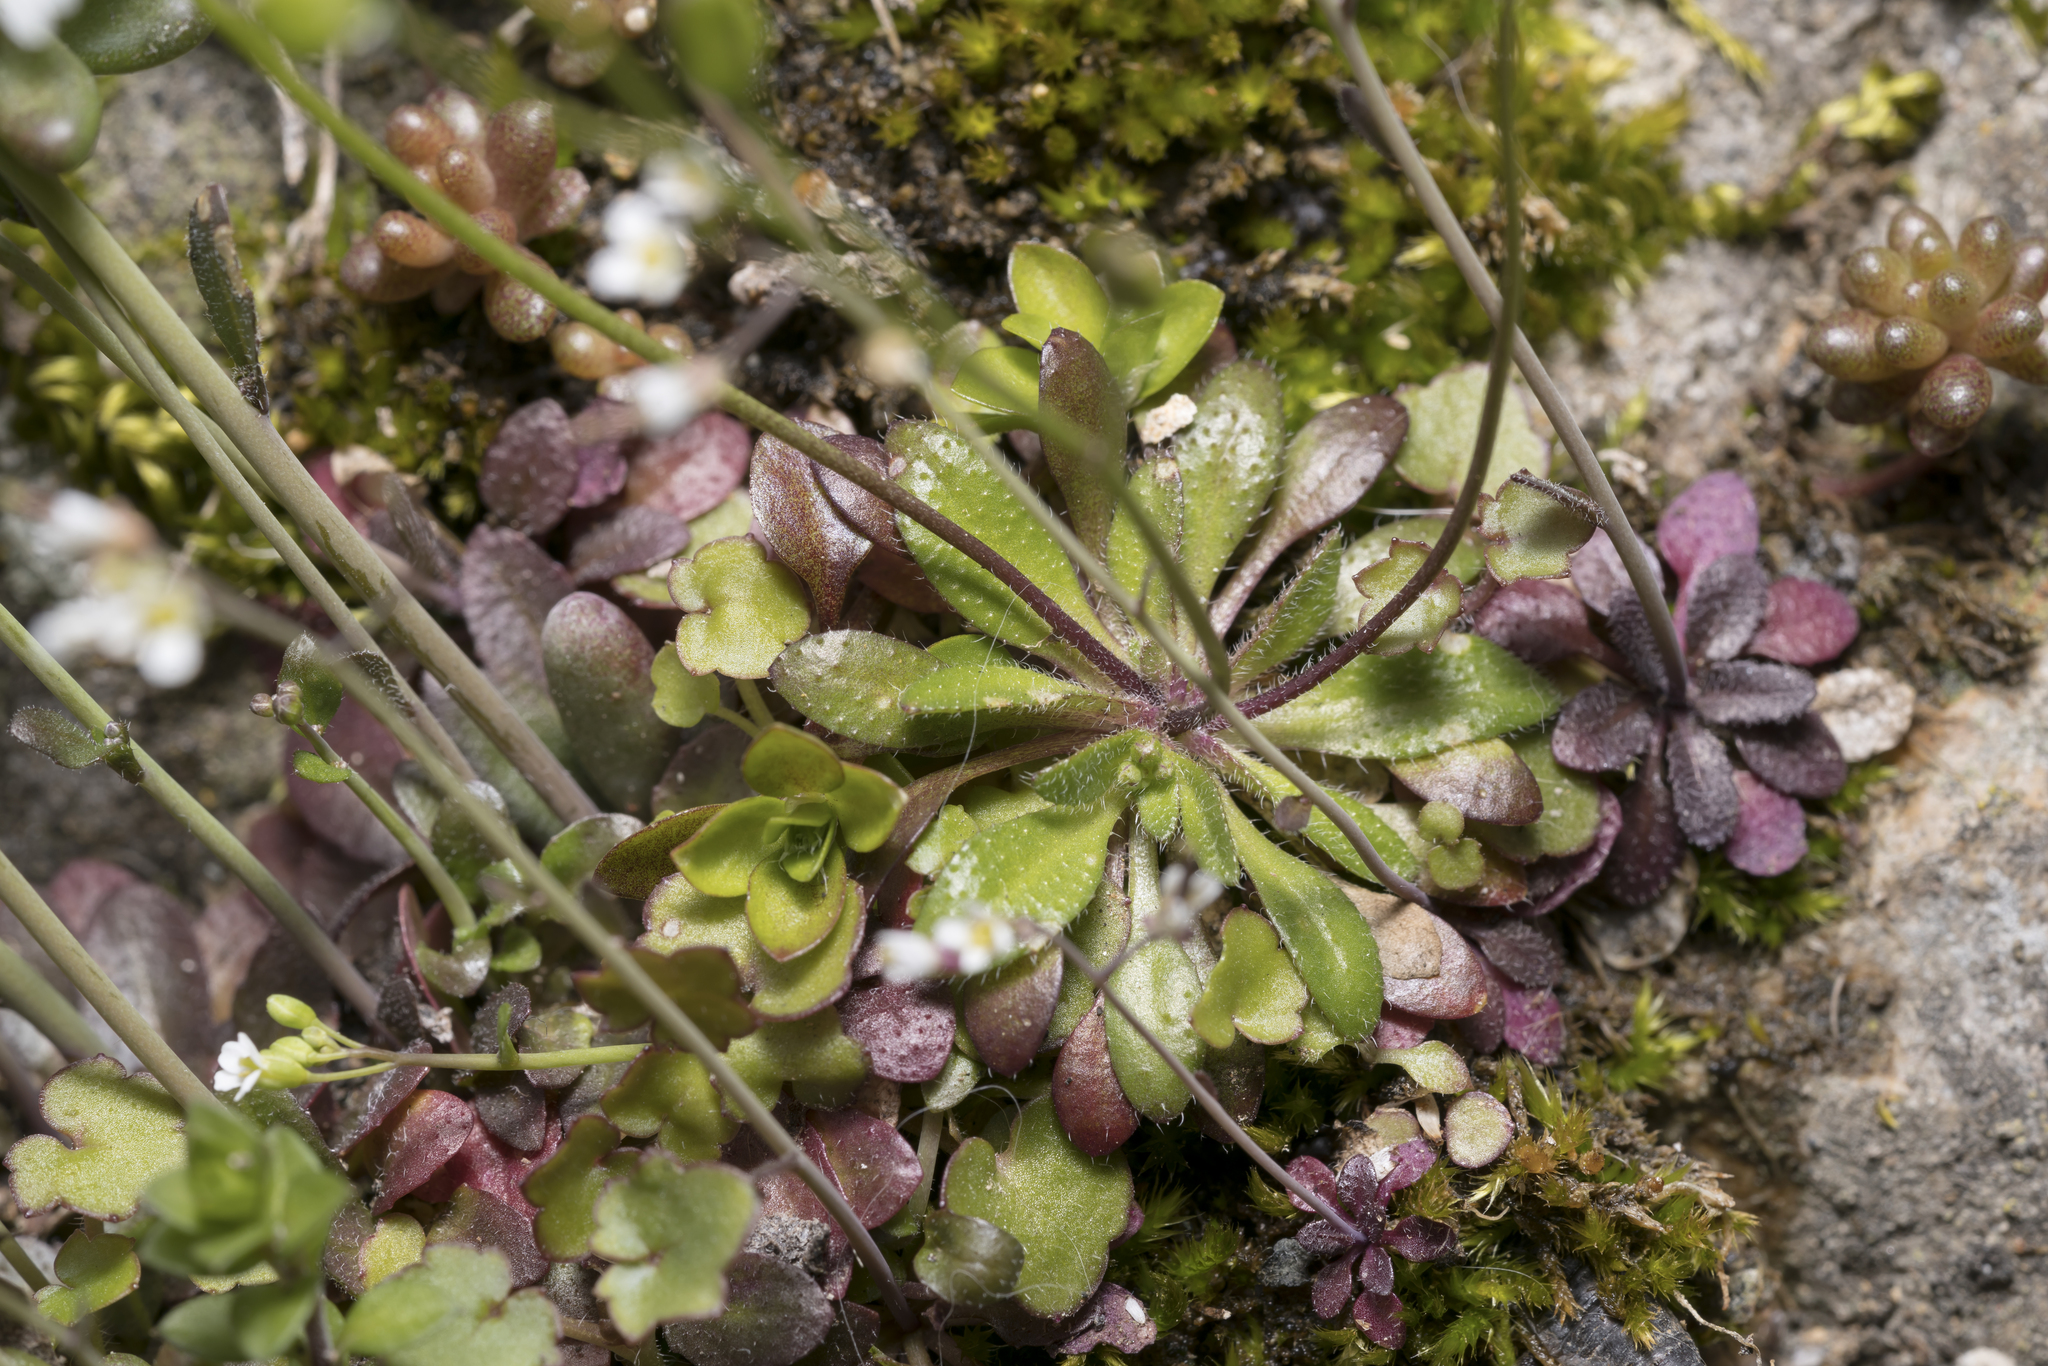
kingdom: Plantae
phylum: Tracheophyta
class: Magnoliopsida
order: Brassicales
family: Brassicaceae
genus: Draba
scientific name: Draba verna
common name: Spring draba
